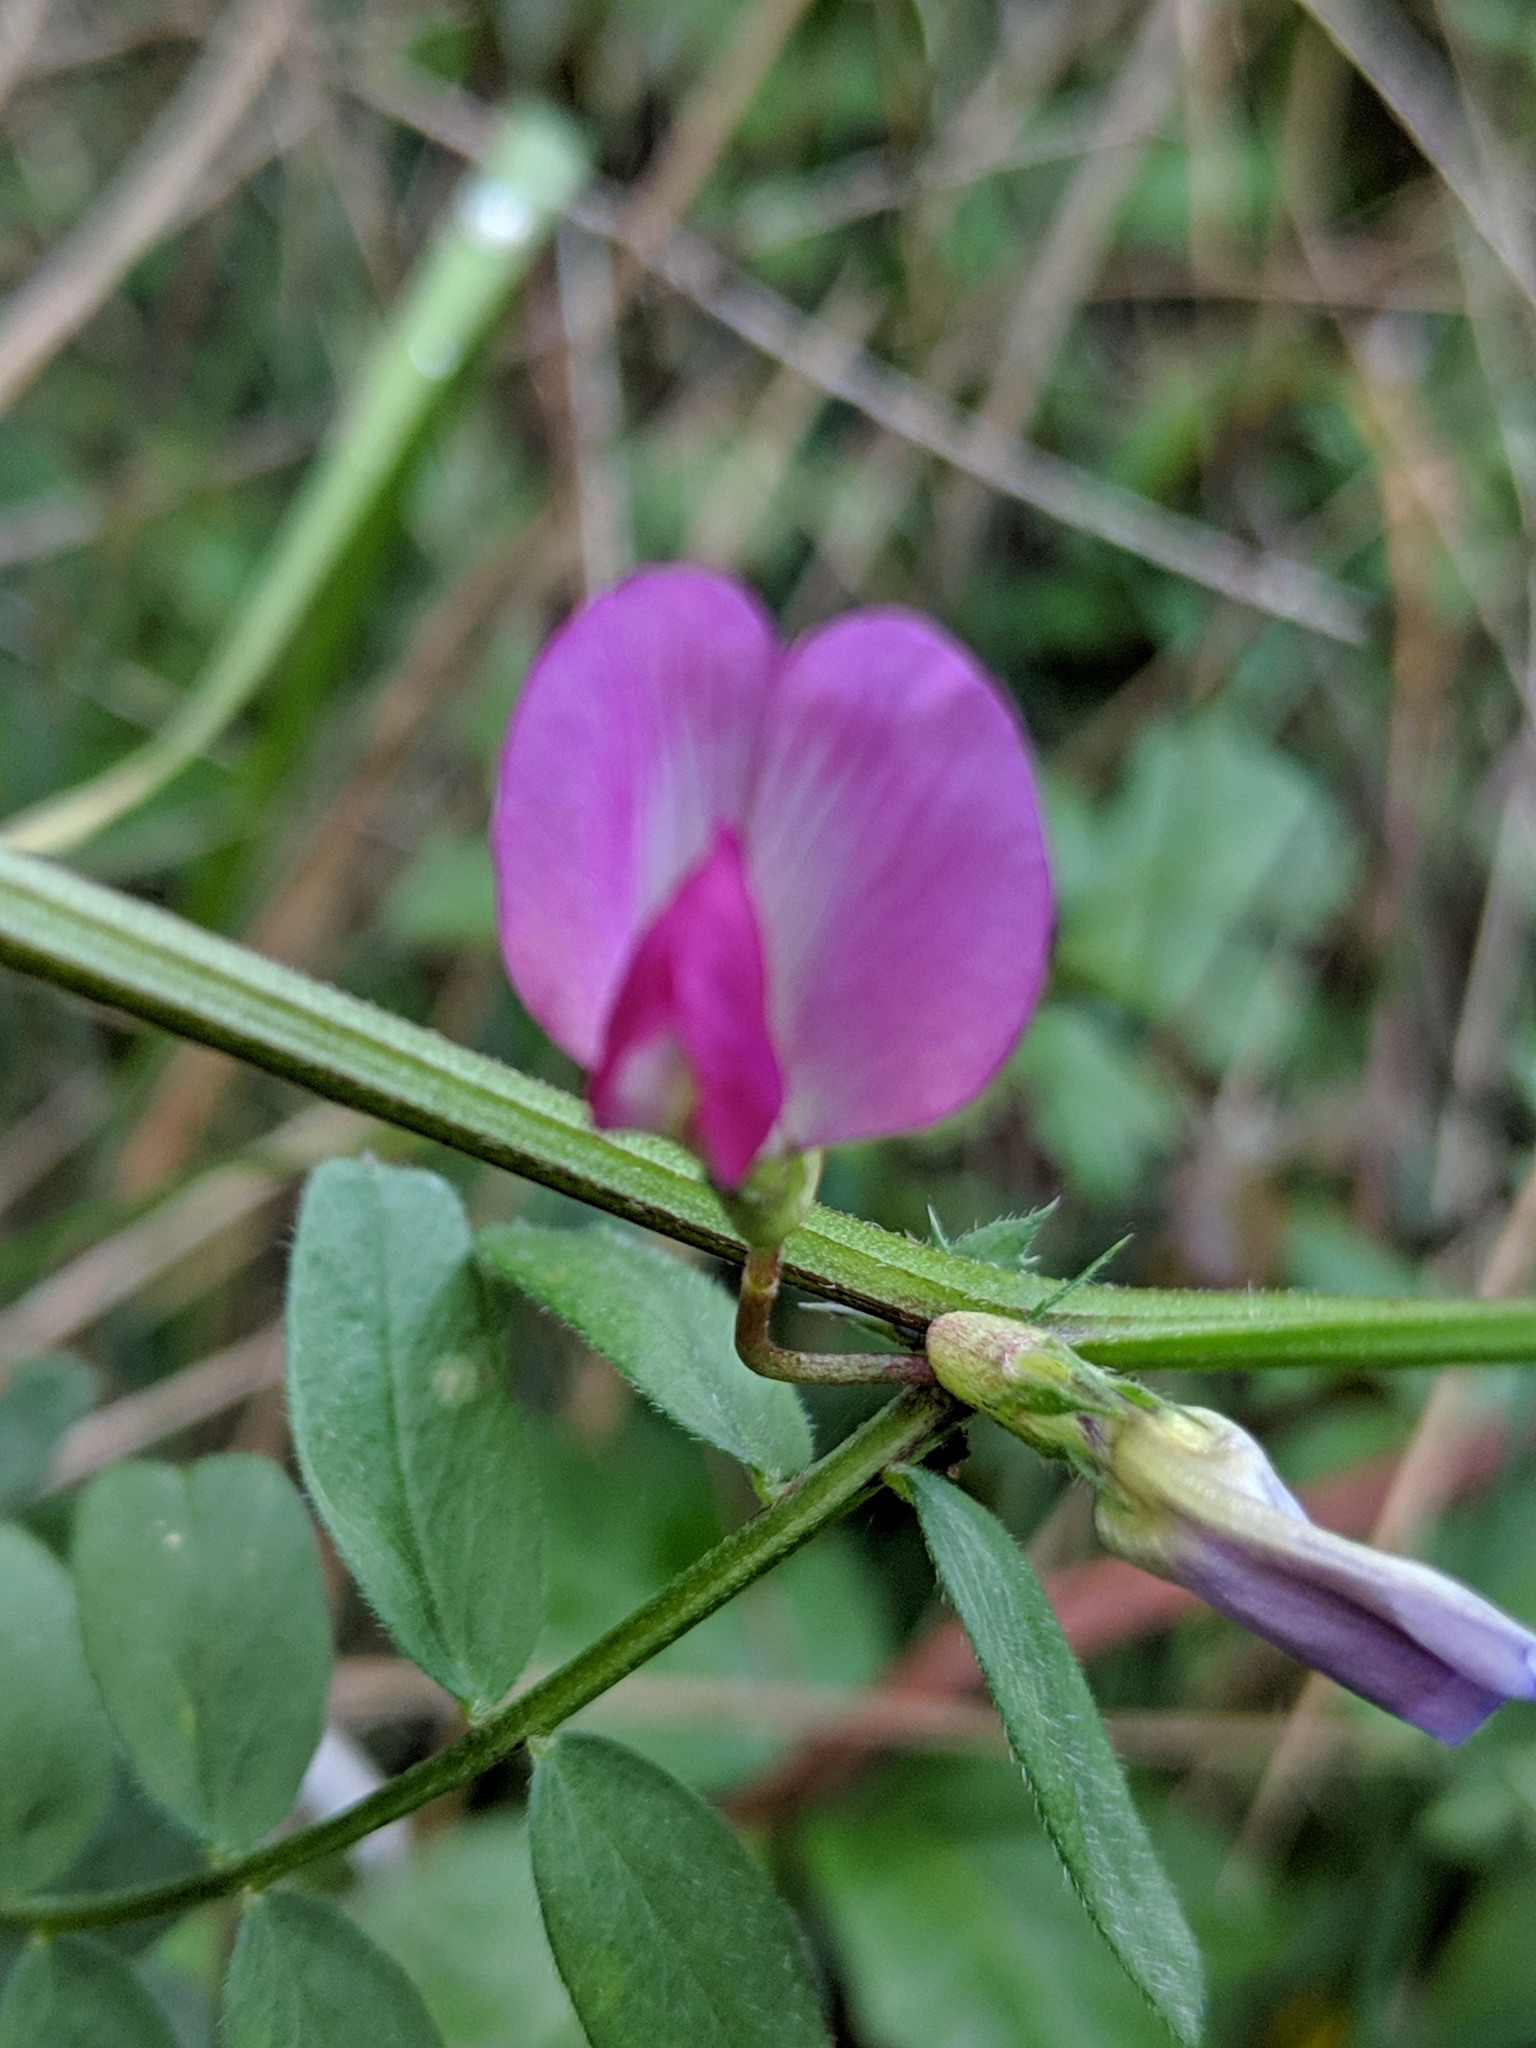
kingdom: Plantae
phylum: Tracheophyta
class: Magnoliopsida
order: Fabales
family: Fabaceae
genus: Vicia
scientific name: Vicia sativa
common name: Garden vetch
